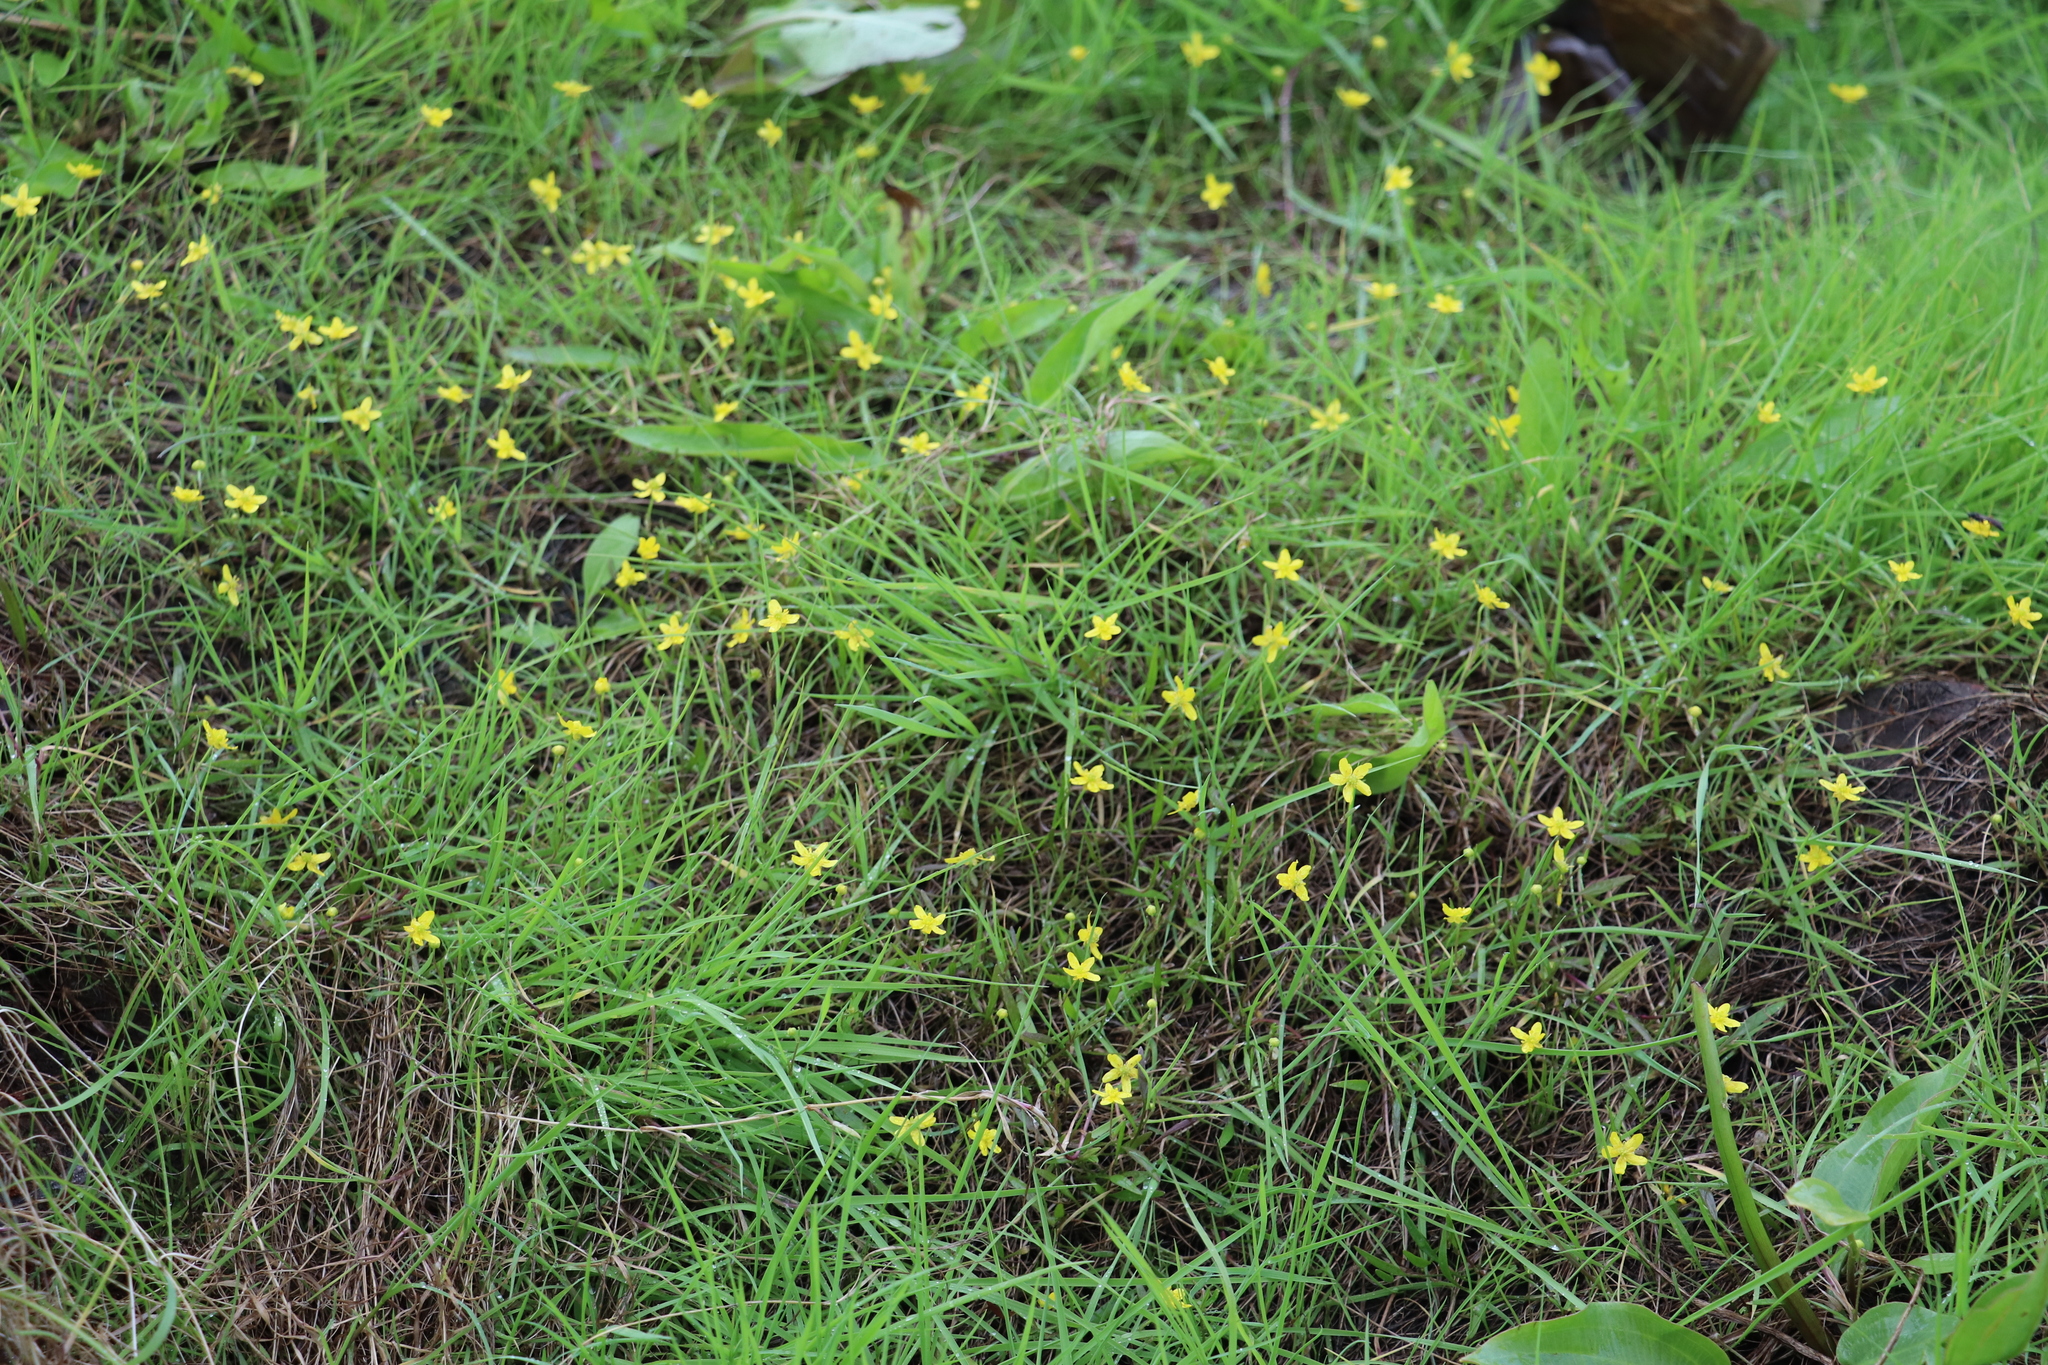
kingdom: Plantae
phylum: Tracheophyta
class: Magnoliopsida
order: Ranunculales
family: Ranunculaceae
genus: Ranunculus
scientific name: Ranunculus reptans
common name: Creeping spearwort
